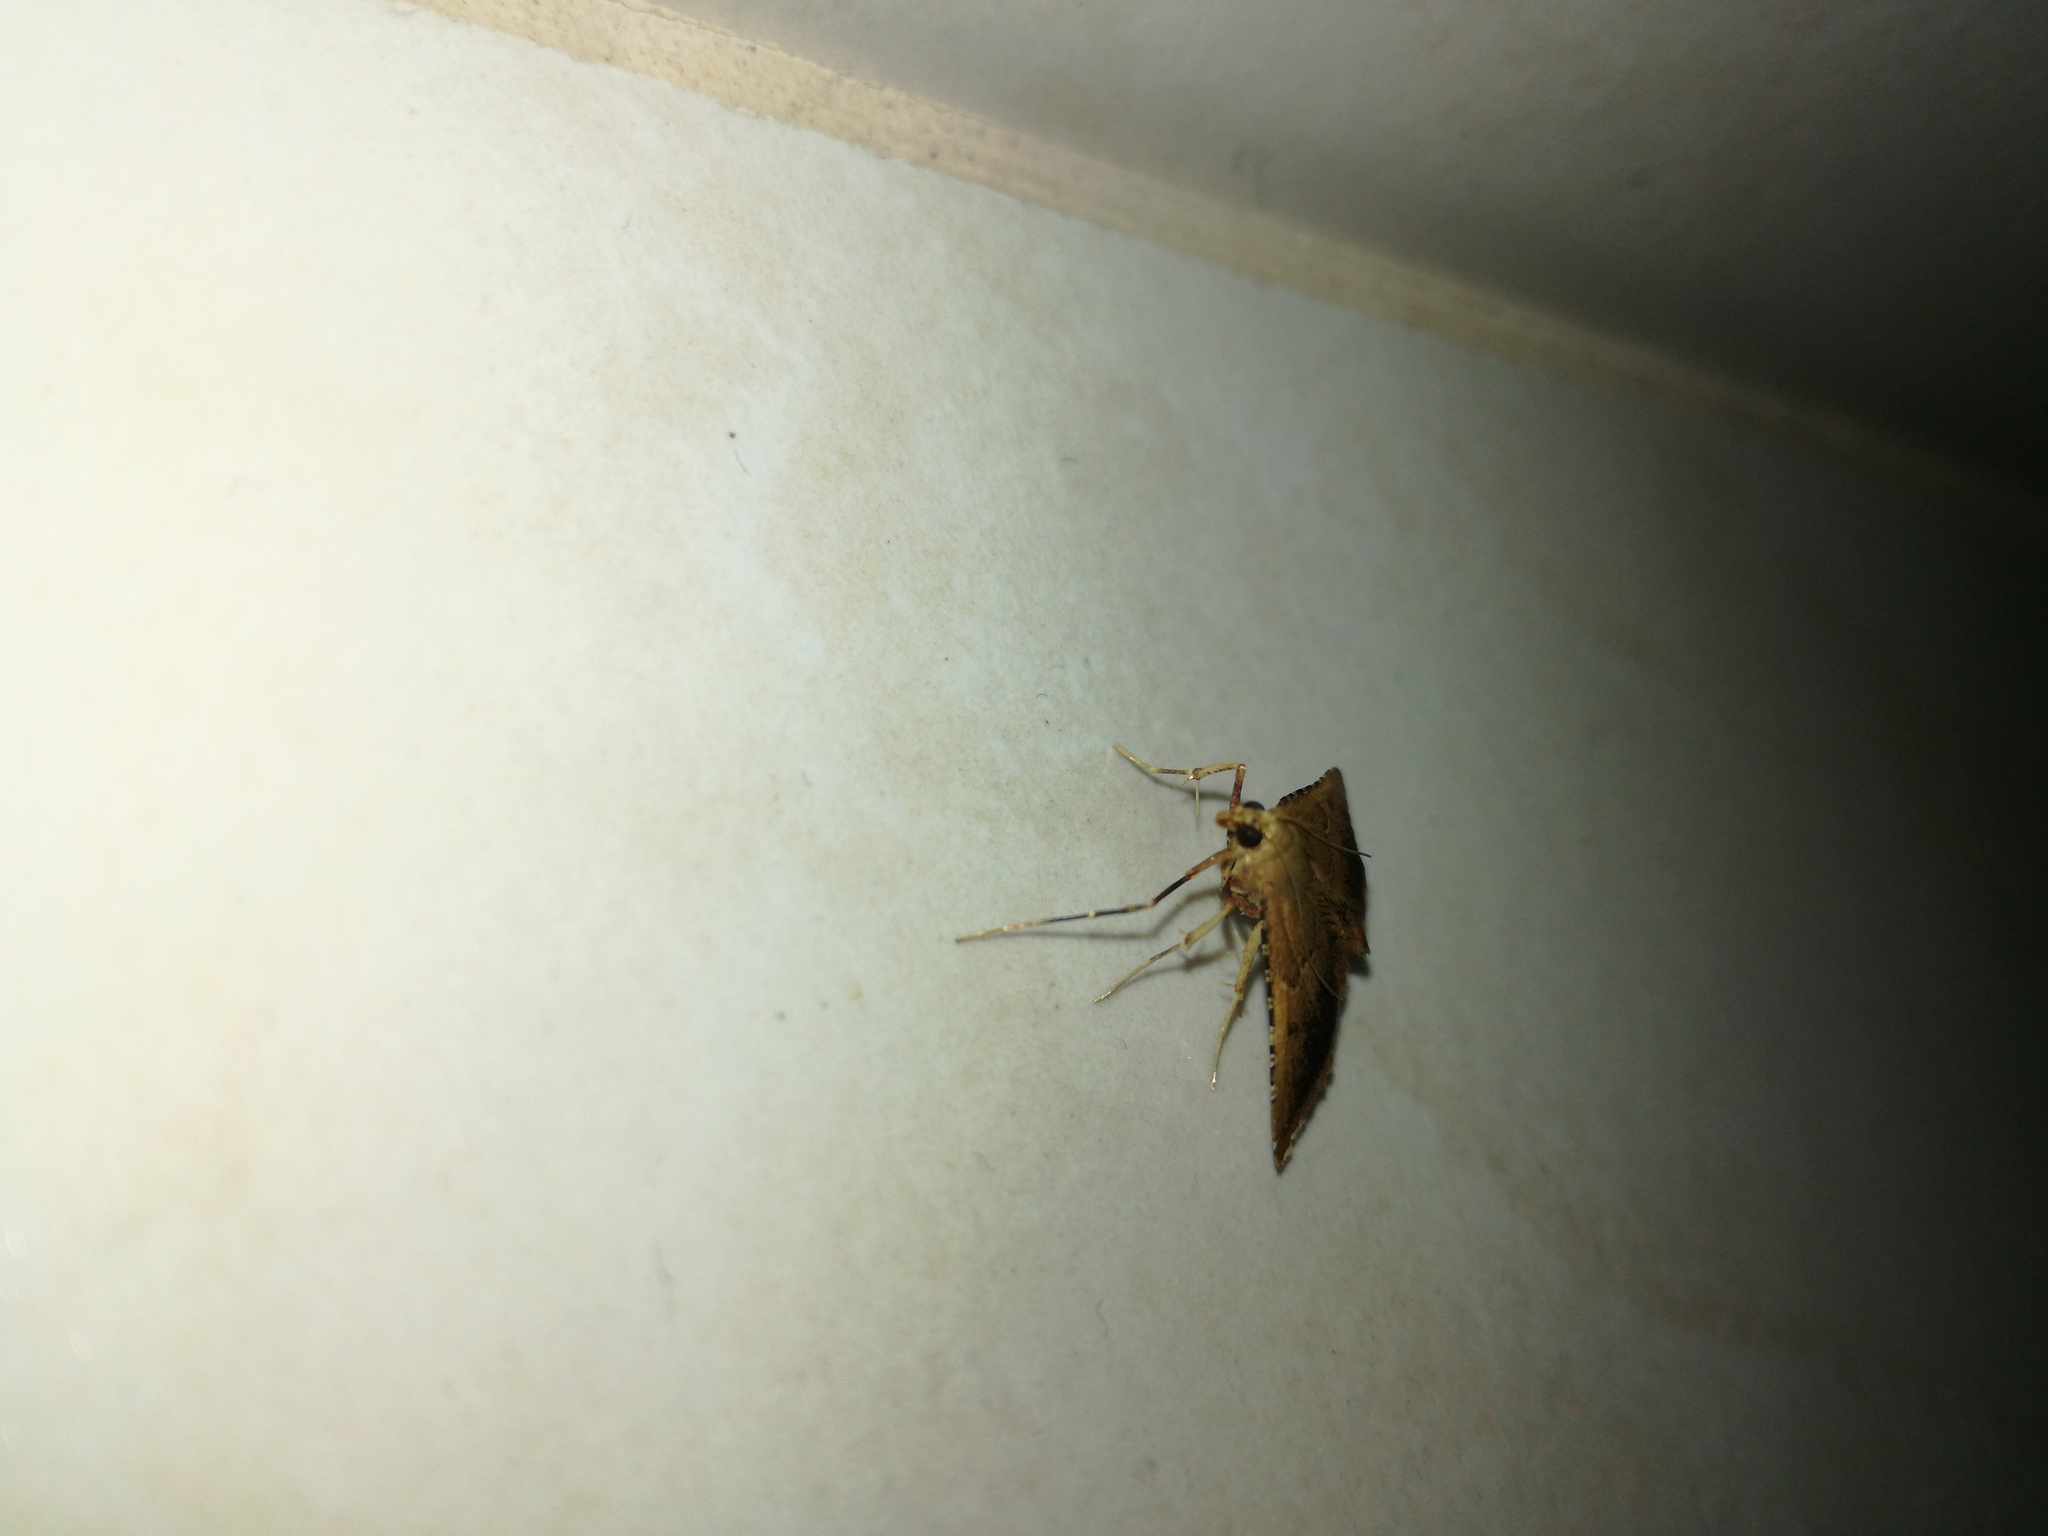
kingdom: Animalia
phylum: Arthropoda
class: Insecta
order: Lepidoptera
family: Pyralidae
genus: Endotricha
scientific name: Endotricha flammealis
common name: Rosy tabby
